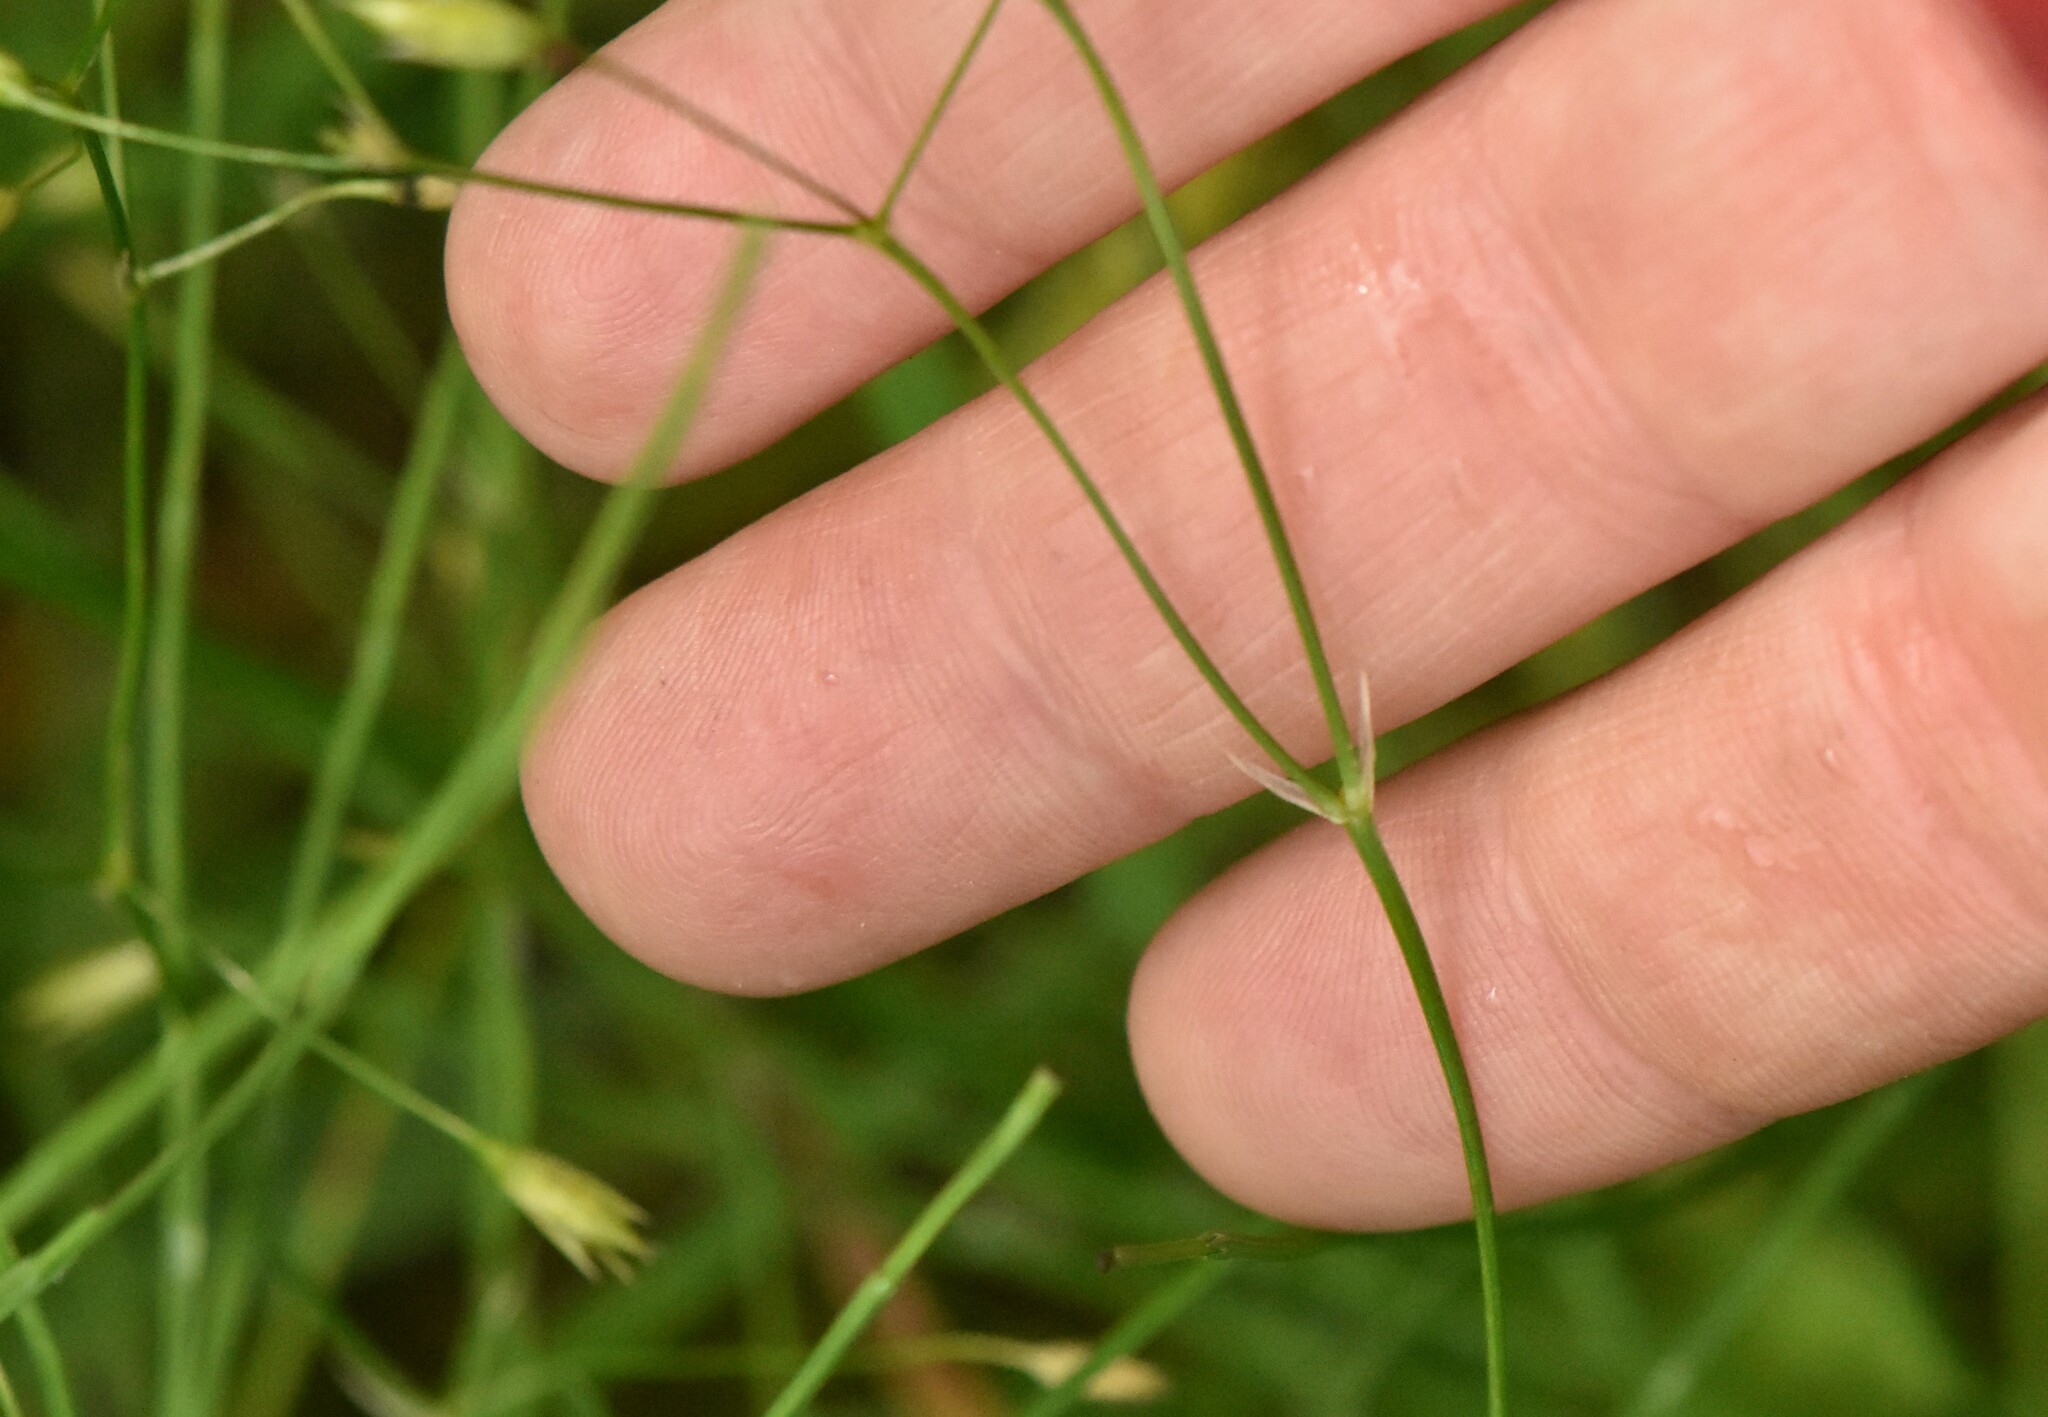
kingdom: Plantae
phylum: Tracheophyta
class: Magnoliopsida
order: Caryophyllales
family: Caryophyllaceae
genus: Stellaria
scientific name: Stellaria graminea
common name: Grass-like starwort
